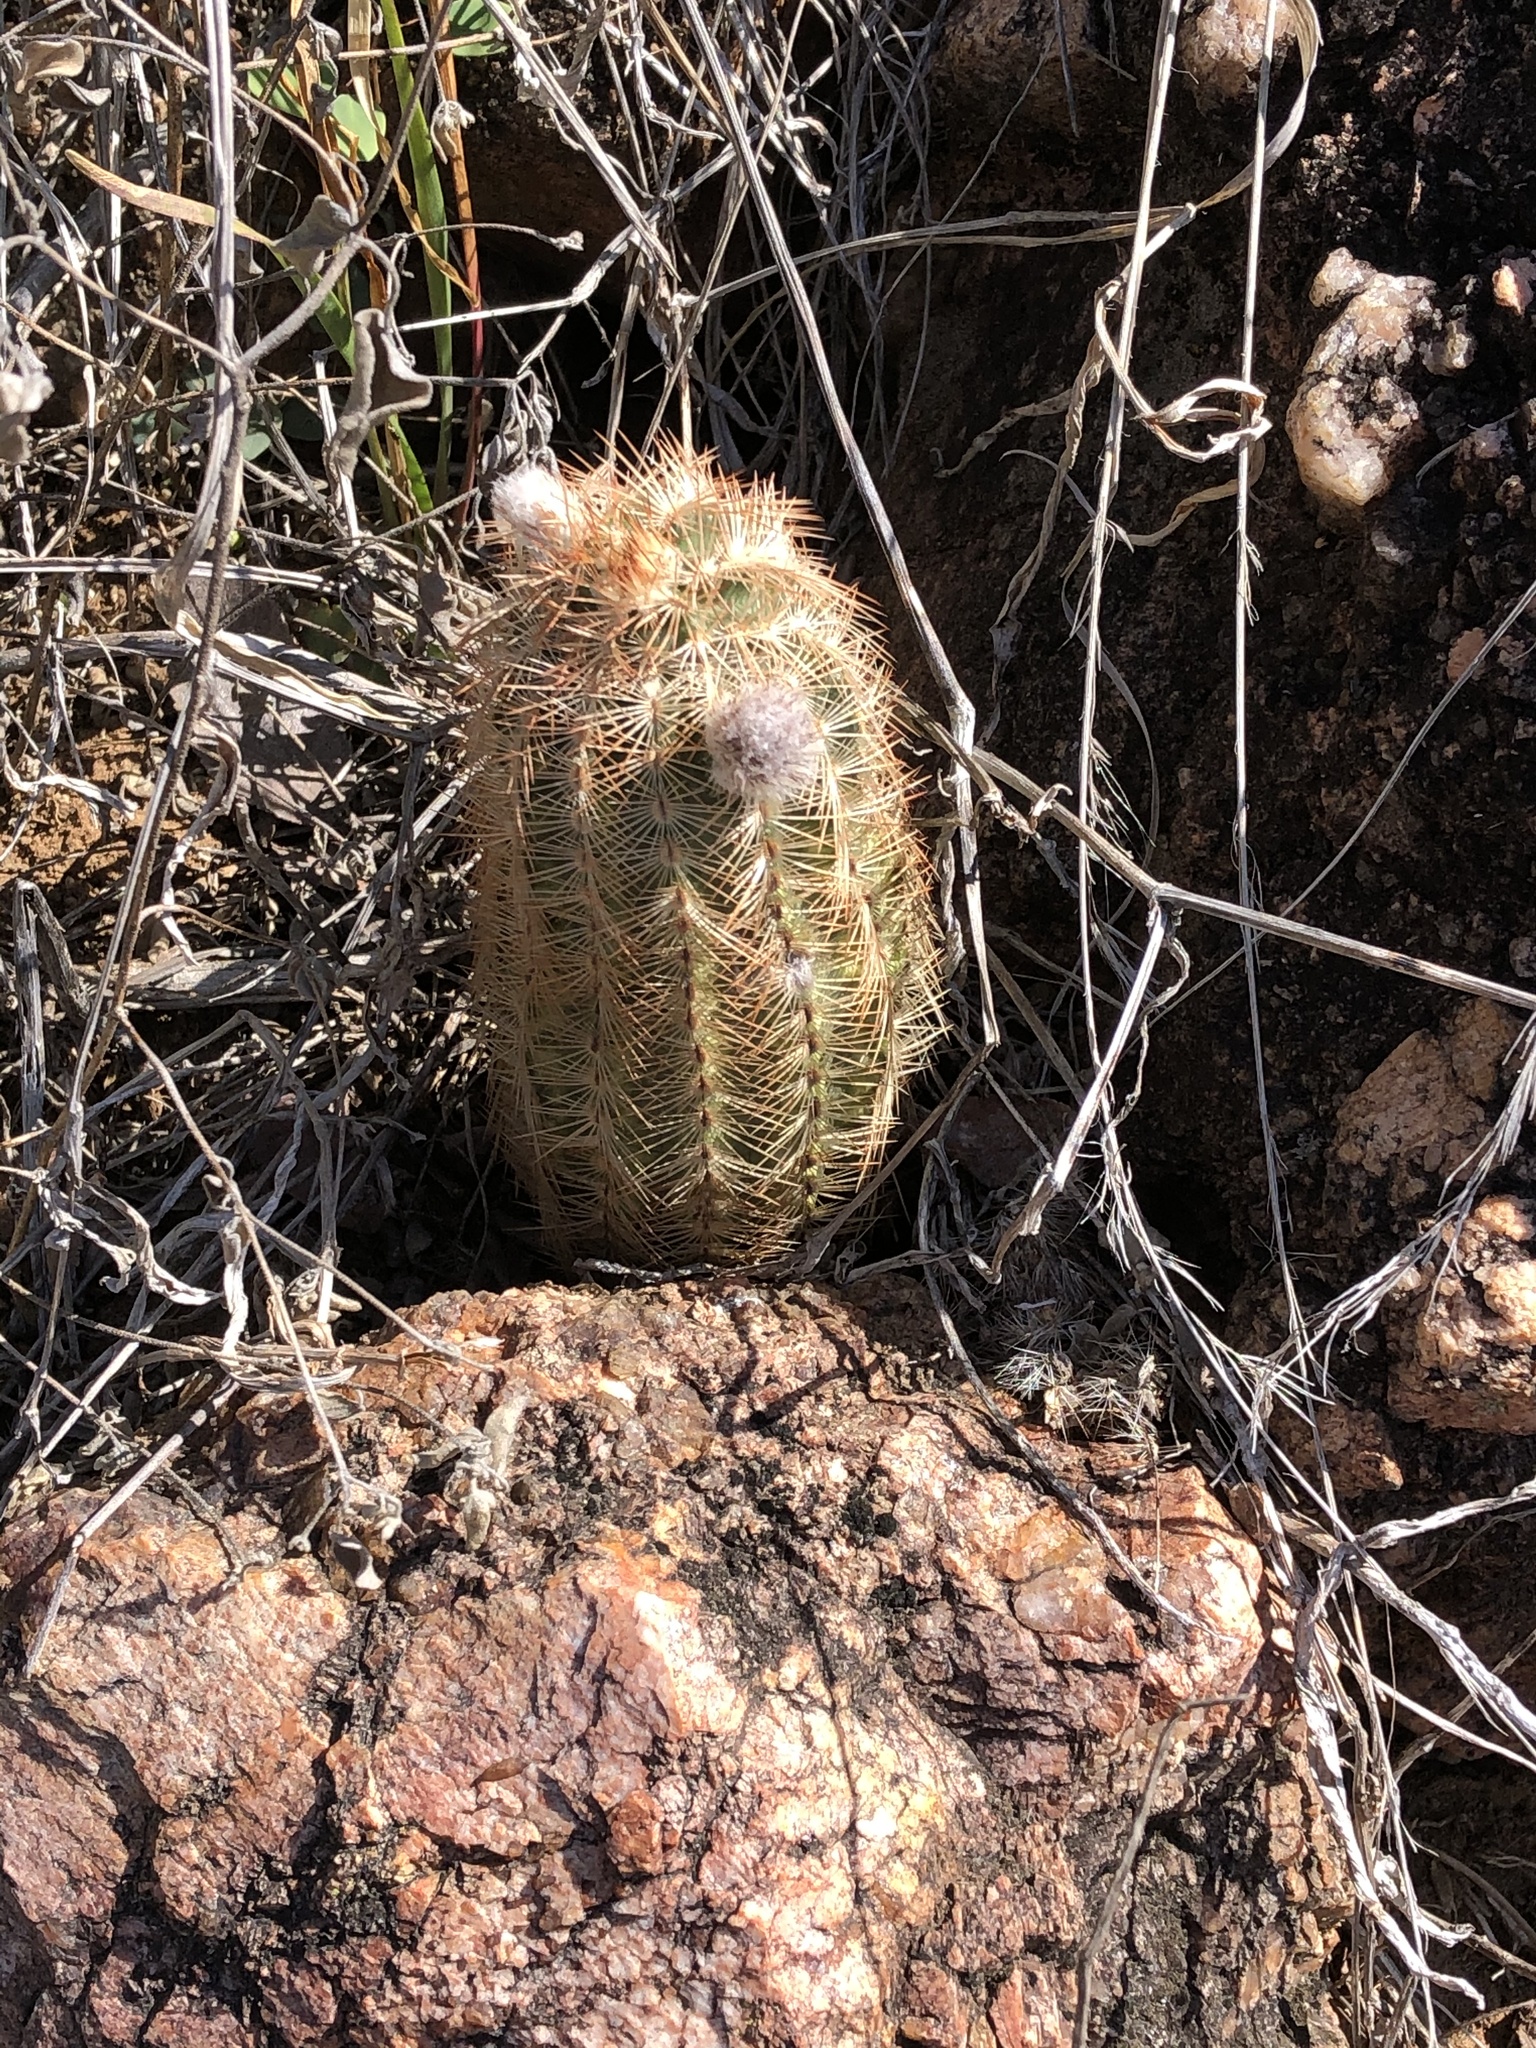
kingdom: Plantae
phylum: Tracheophyta
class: Magnoliopsida
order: Caryophyllales
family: Cactaceae
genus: Echinocereus
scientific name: Echinocereus reichenbachii
